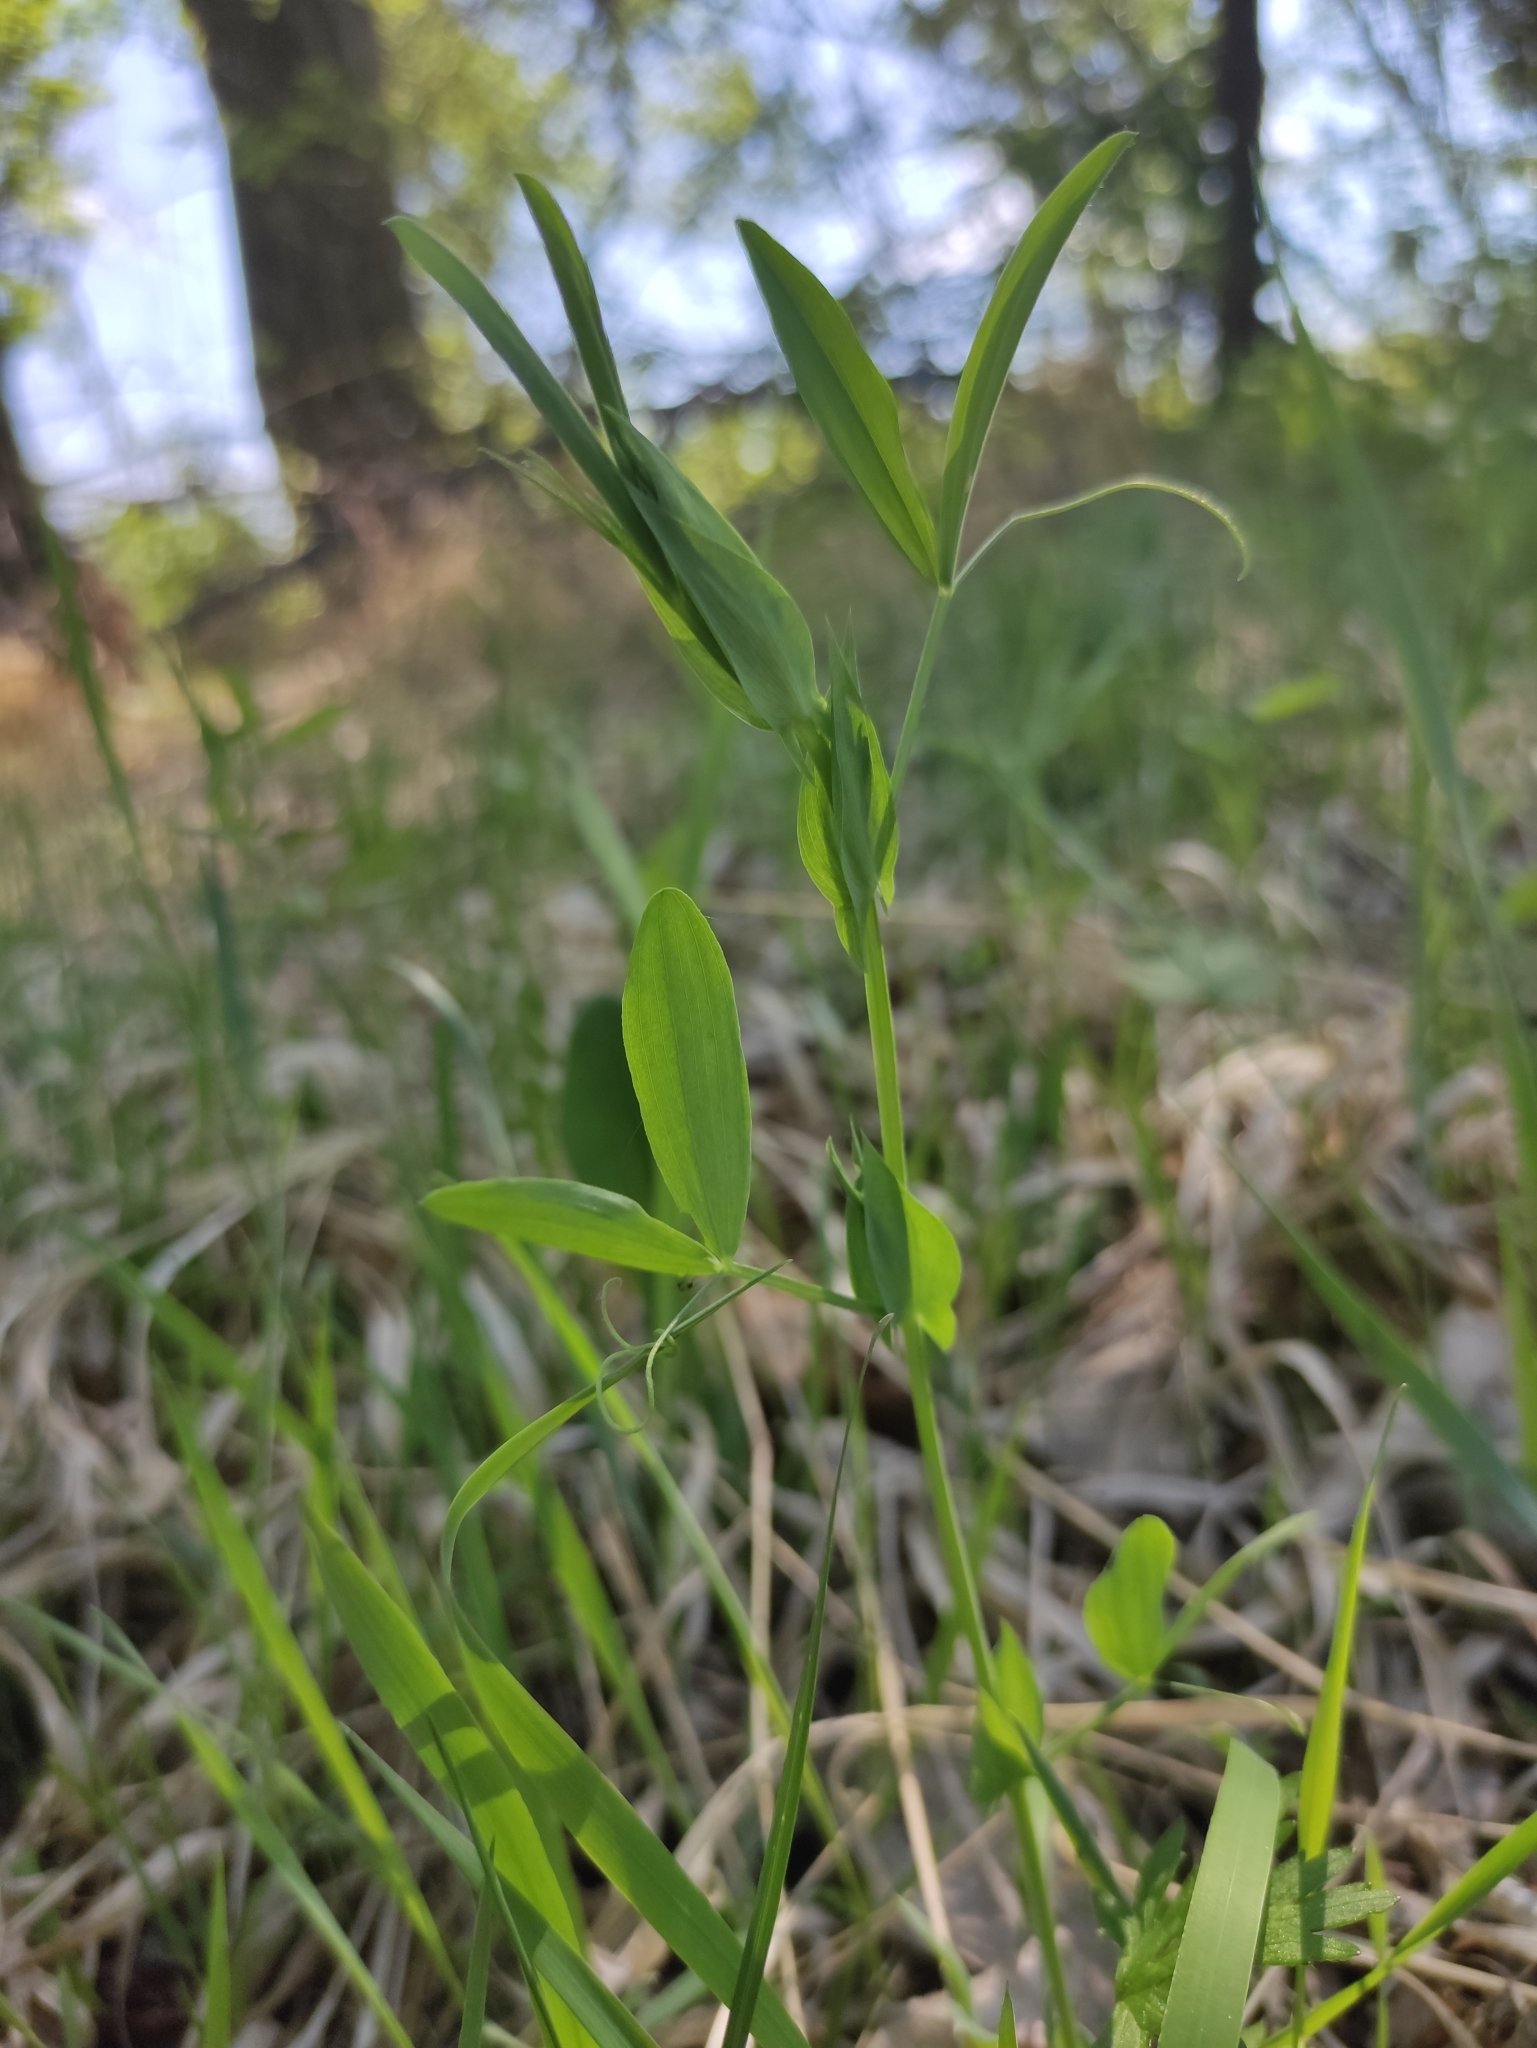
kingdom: Plantae
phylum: Tracheophyta
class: Magnoliopsida
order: Fabales
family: Fabaceae
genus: Lathyrus
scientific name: Lathyrus pratensis
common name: Meadow vetchling
